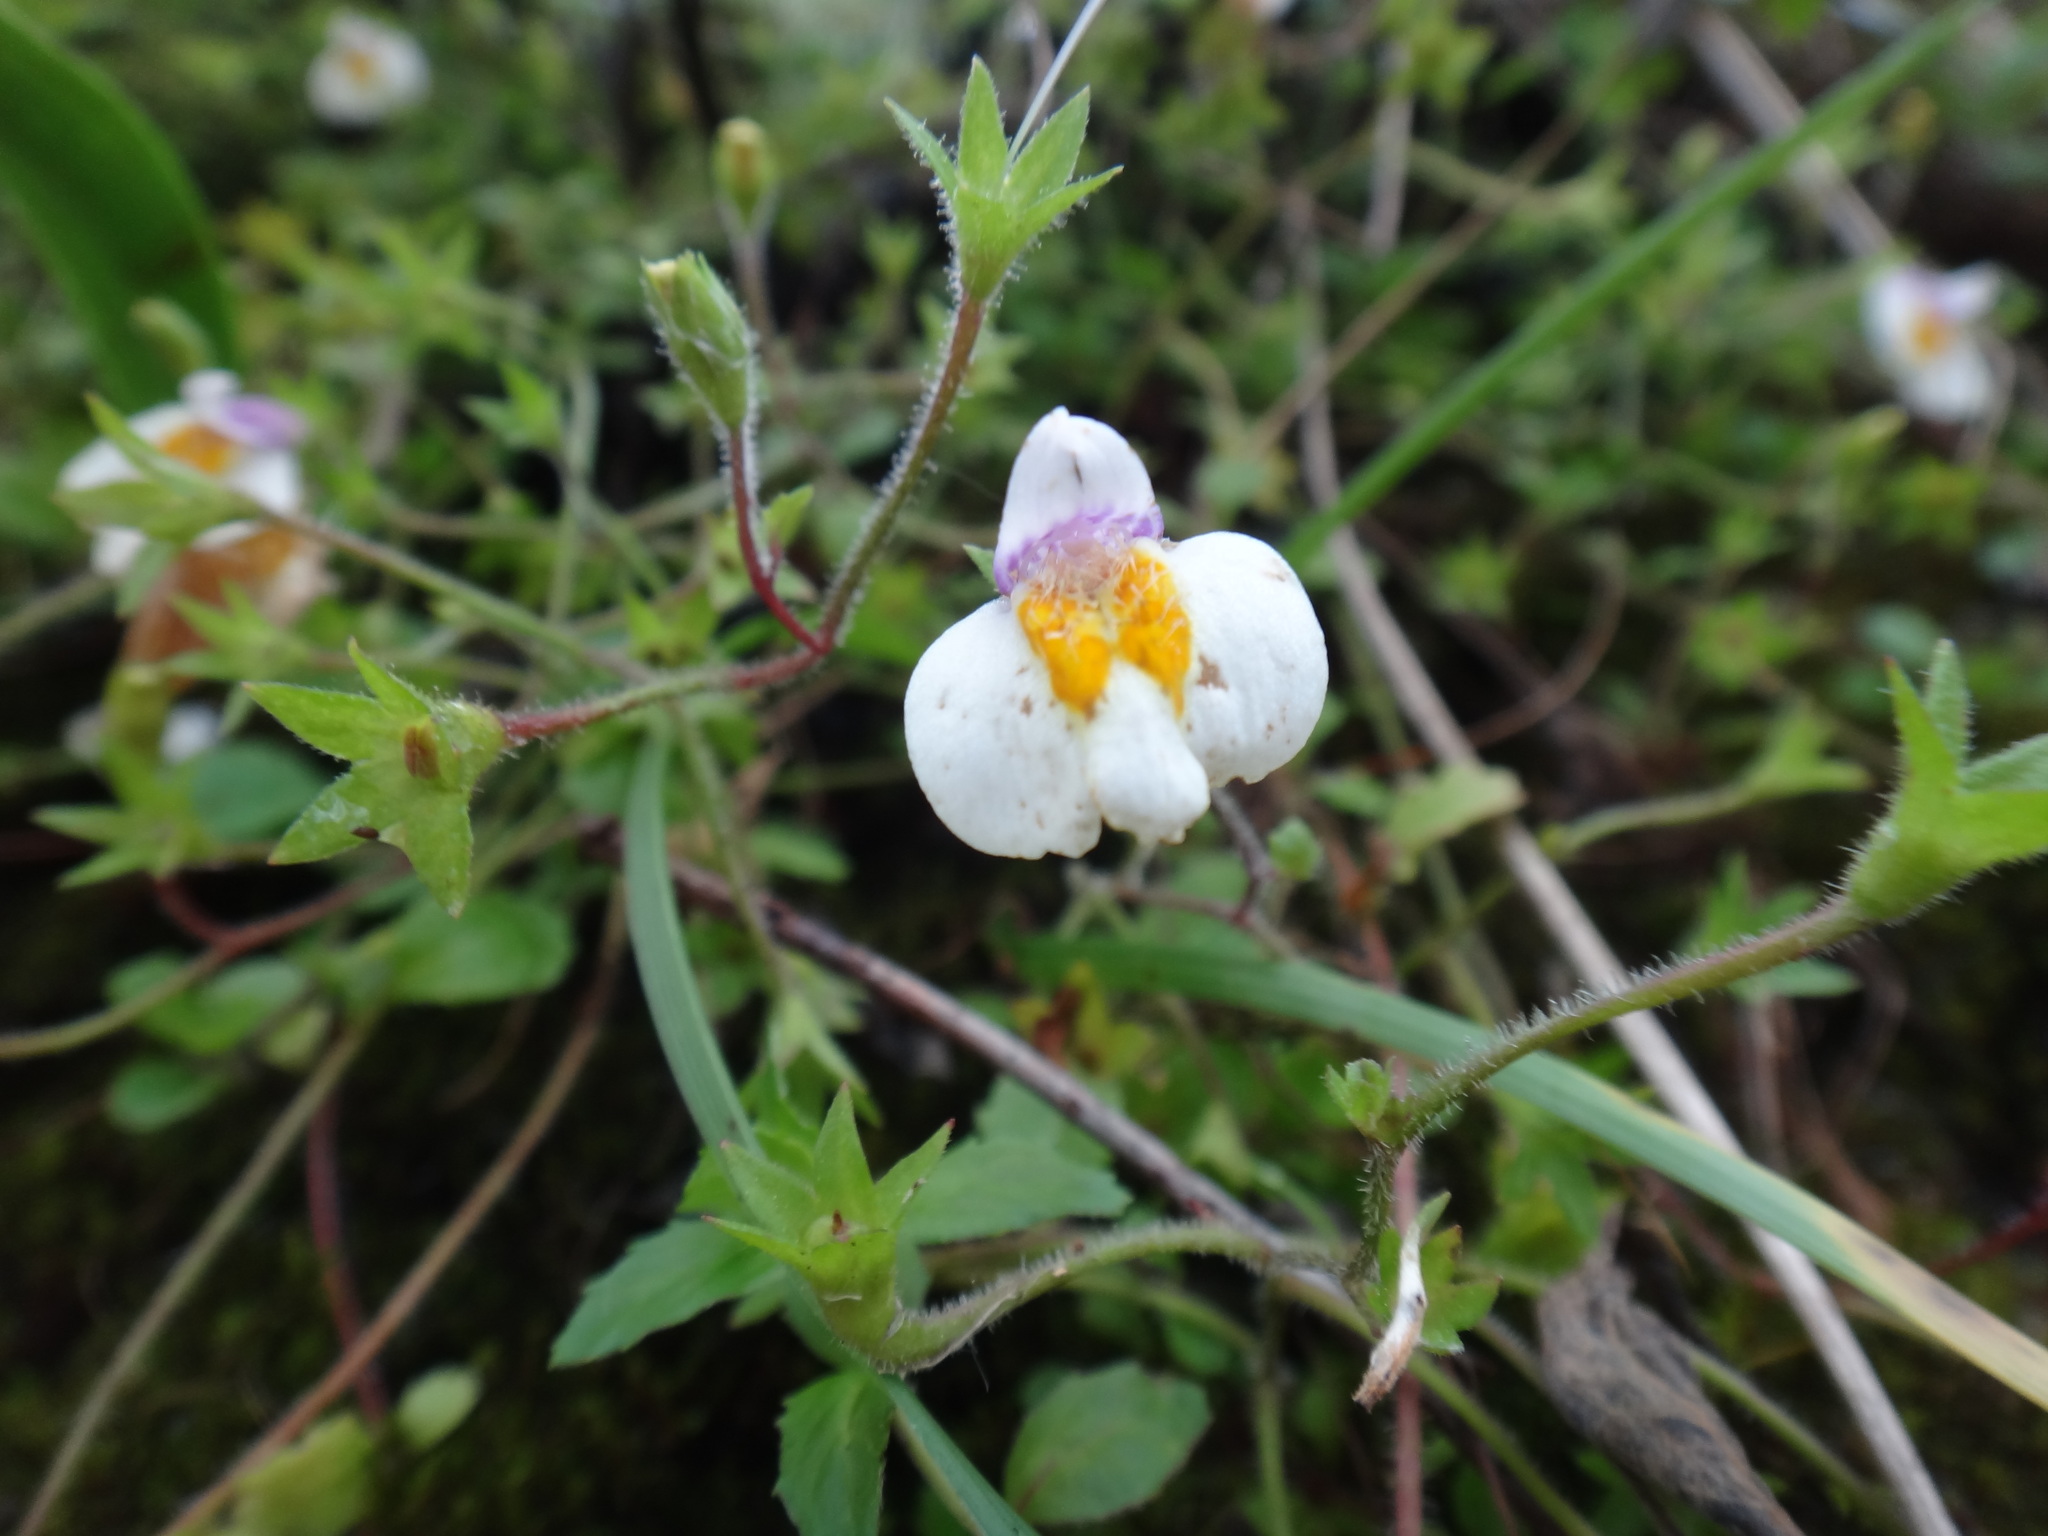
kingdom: Plantae
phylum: Tracheophyta
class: Magnoliopsida
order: Lamiales
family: Mazaceae
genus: Mazus
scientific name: Mazus alpinus
